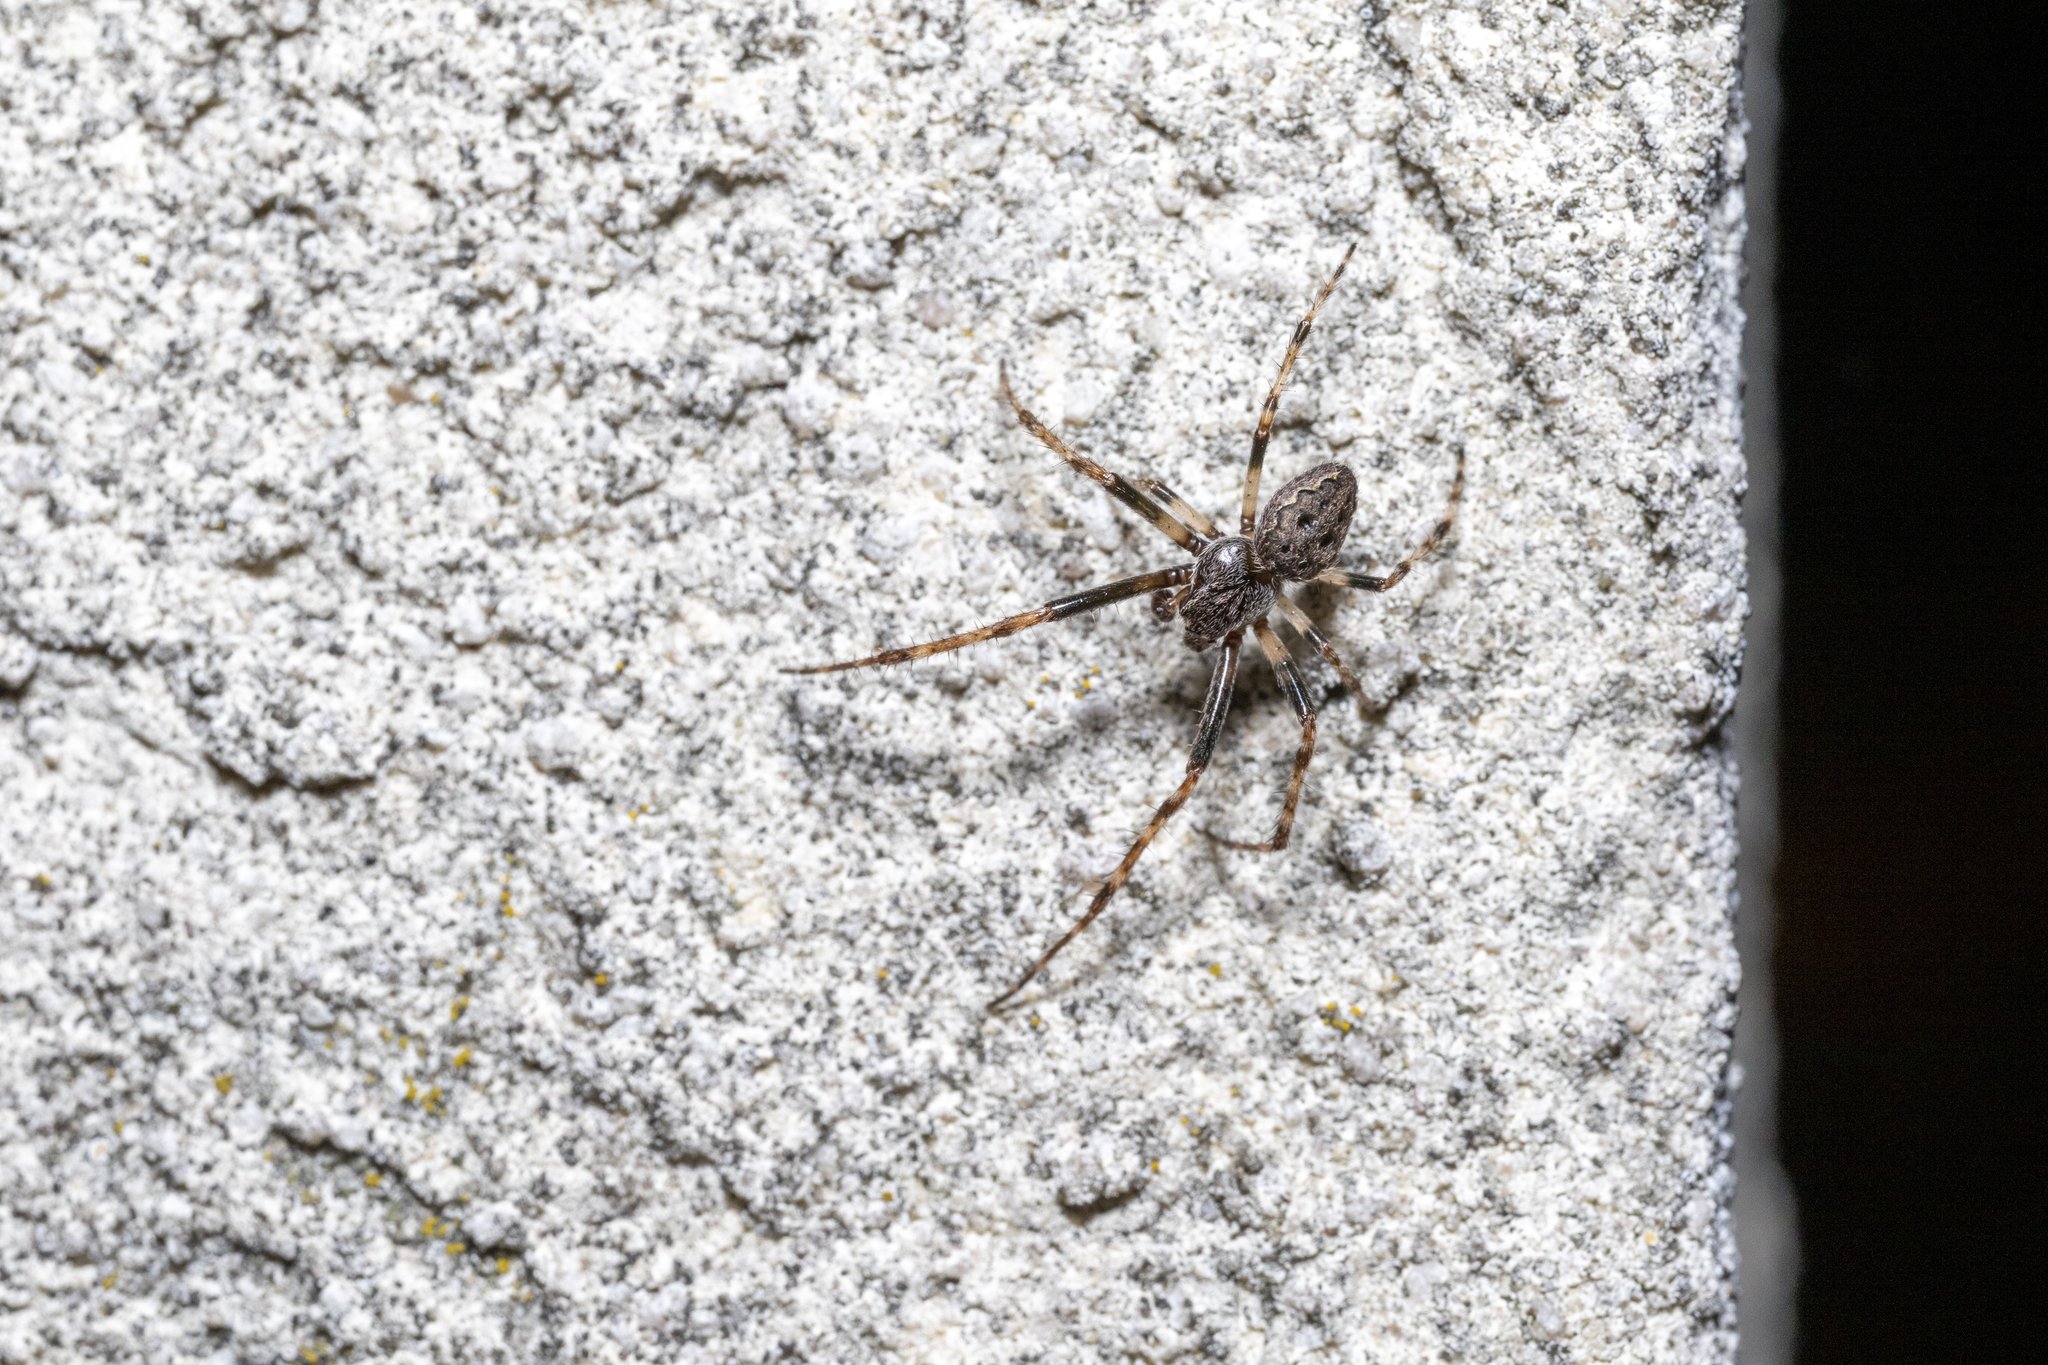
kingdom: Animalia
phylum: Arthropoda
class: Arachnida
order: Araneae
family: Araneidae
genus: Nuctenea
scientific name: Nuctenea umbratica
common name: Toad spider
